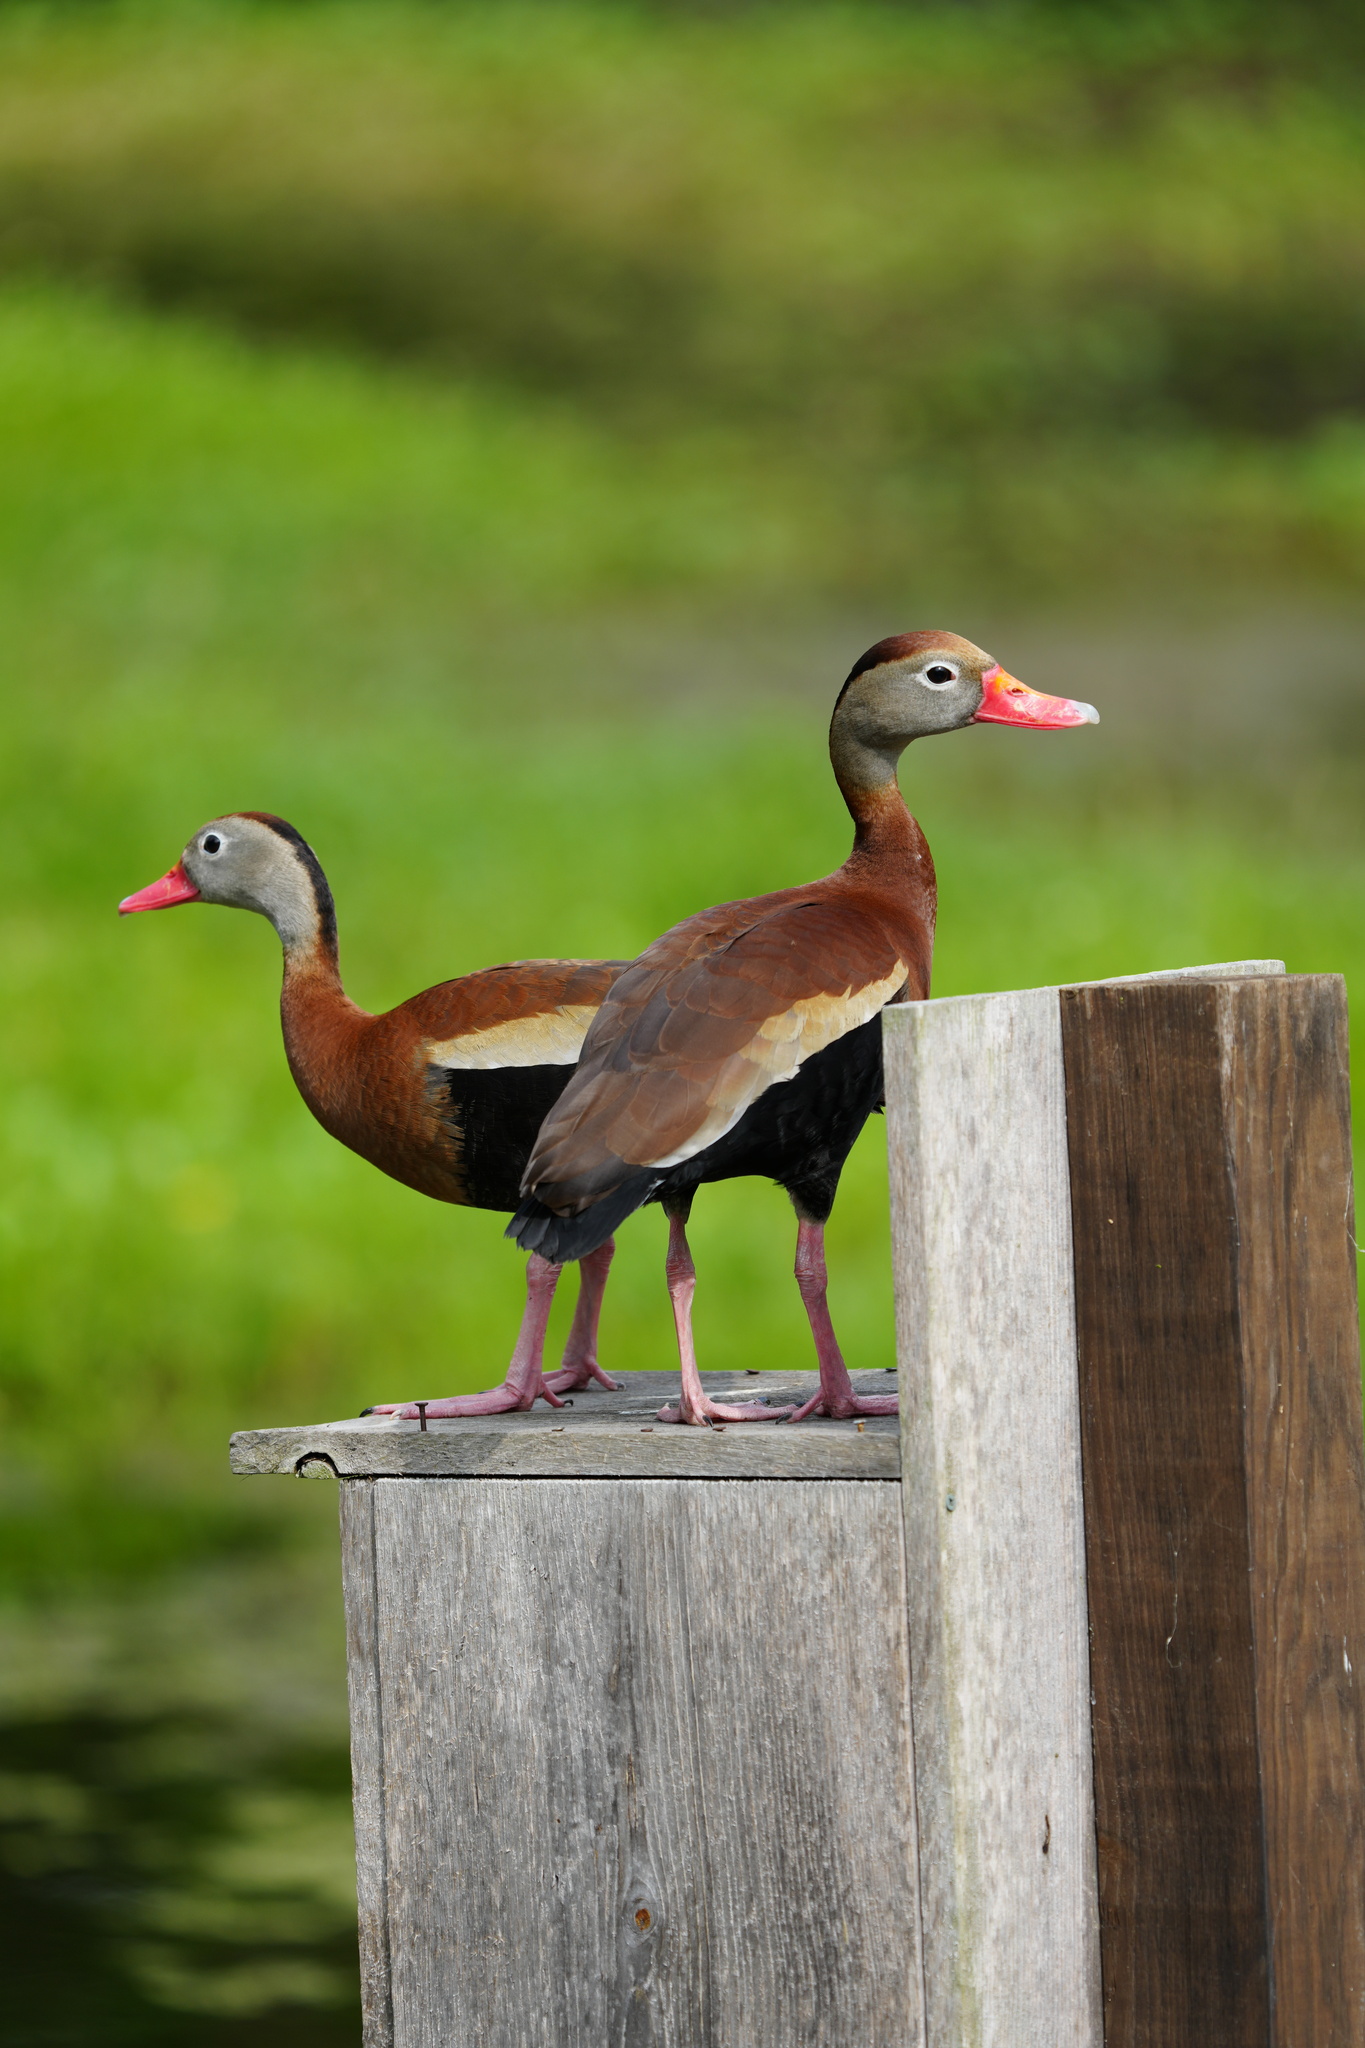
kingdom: Animalia
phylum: Chordata
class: Aves
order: Anseriformes
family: Anatidae
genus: Dendrocygna
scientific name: Dendrocygna autumnalis
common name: Black-bellied whistling duck
